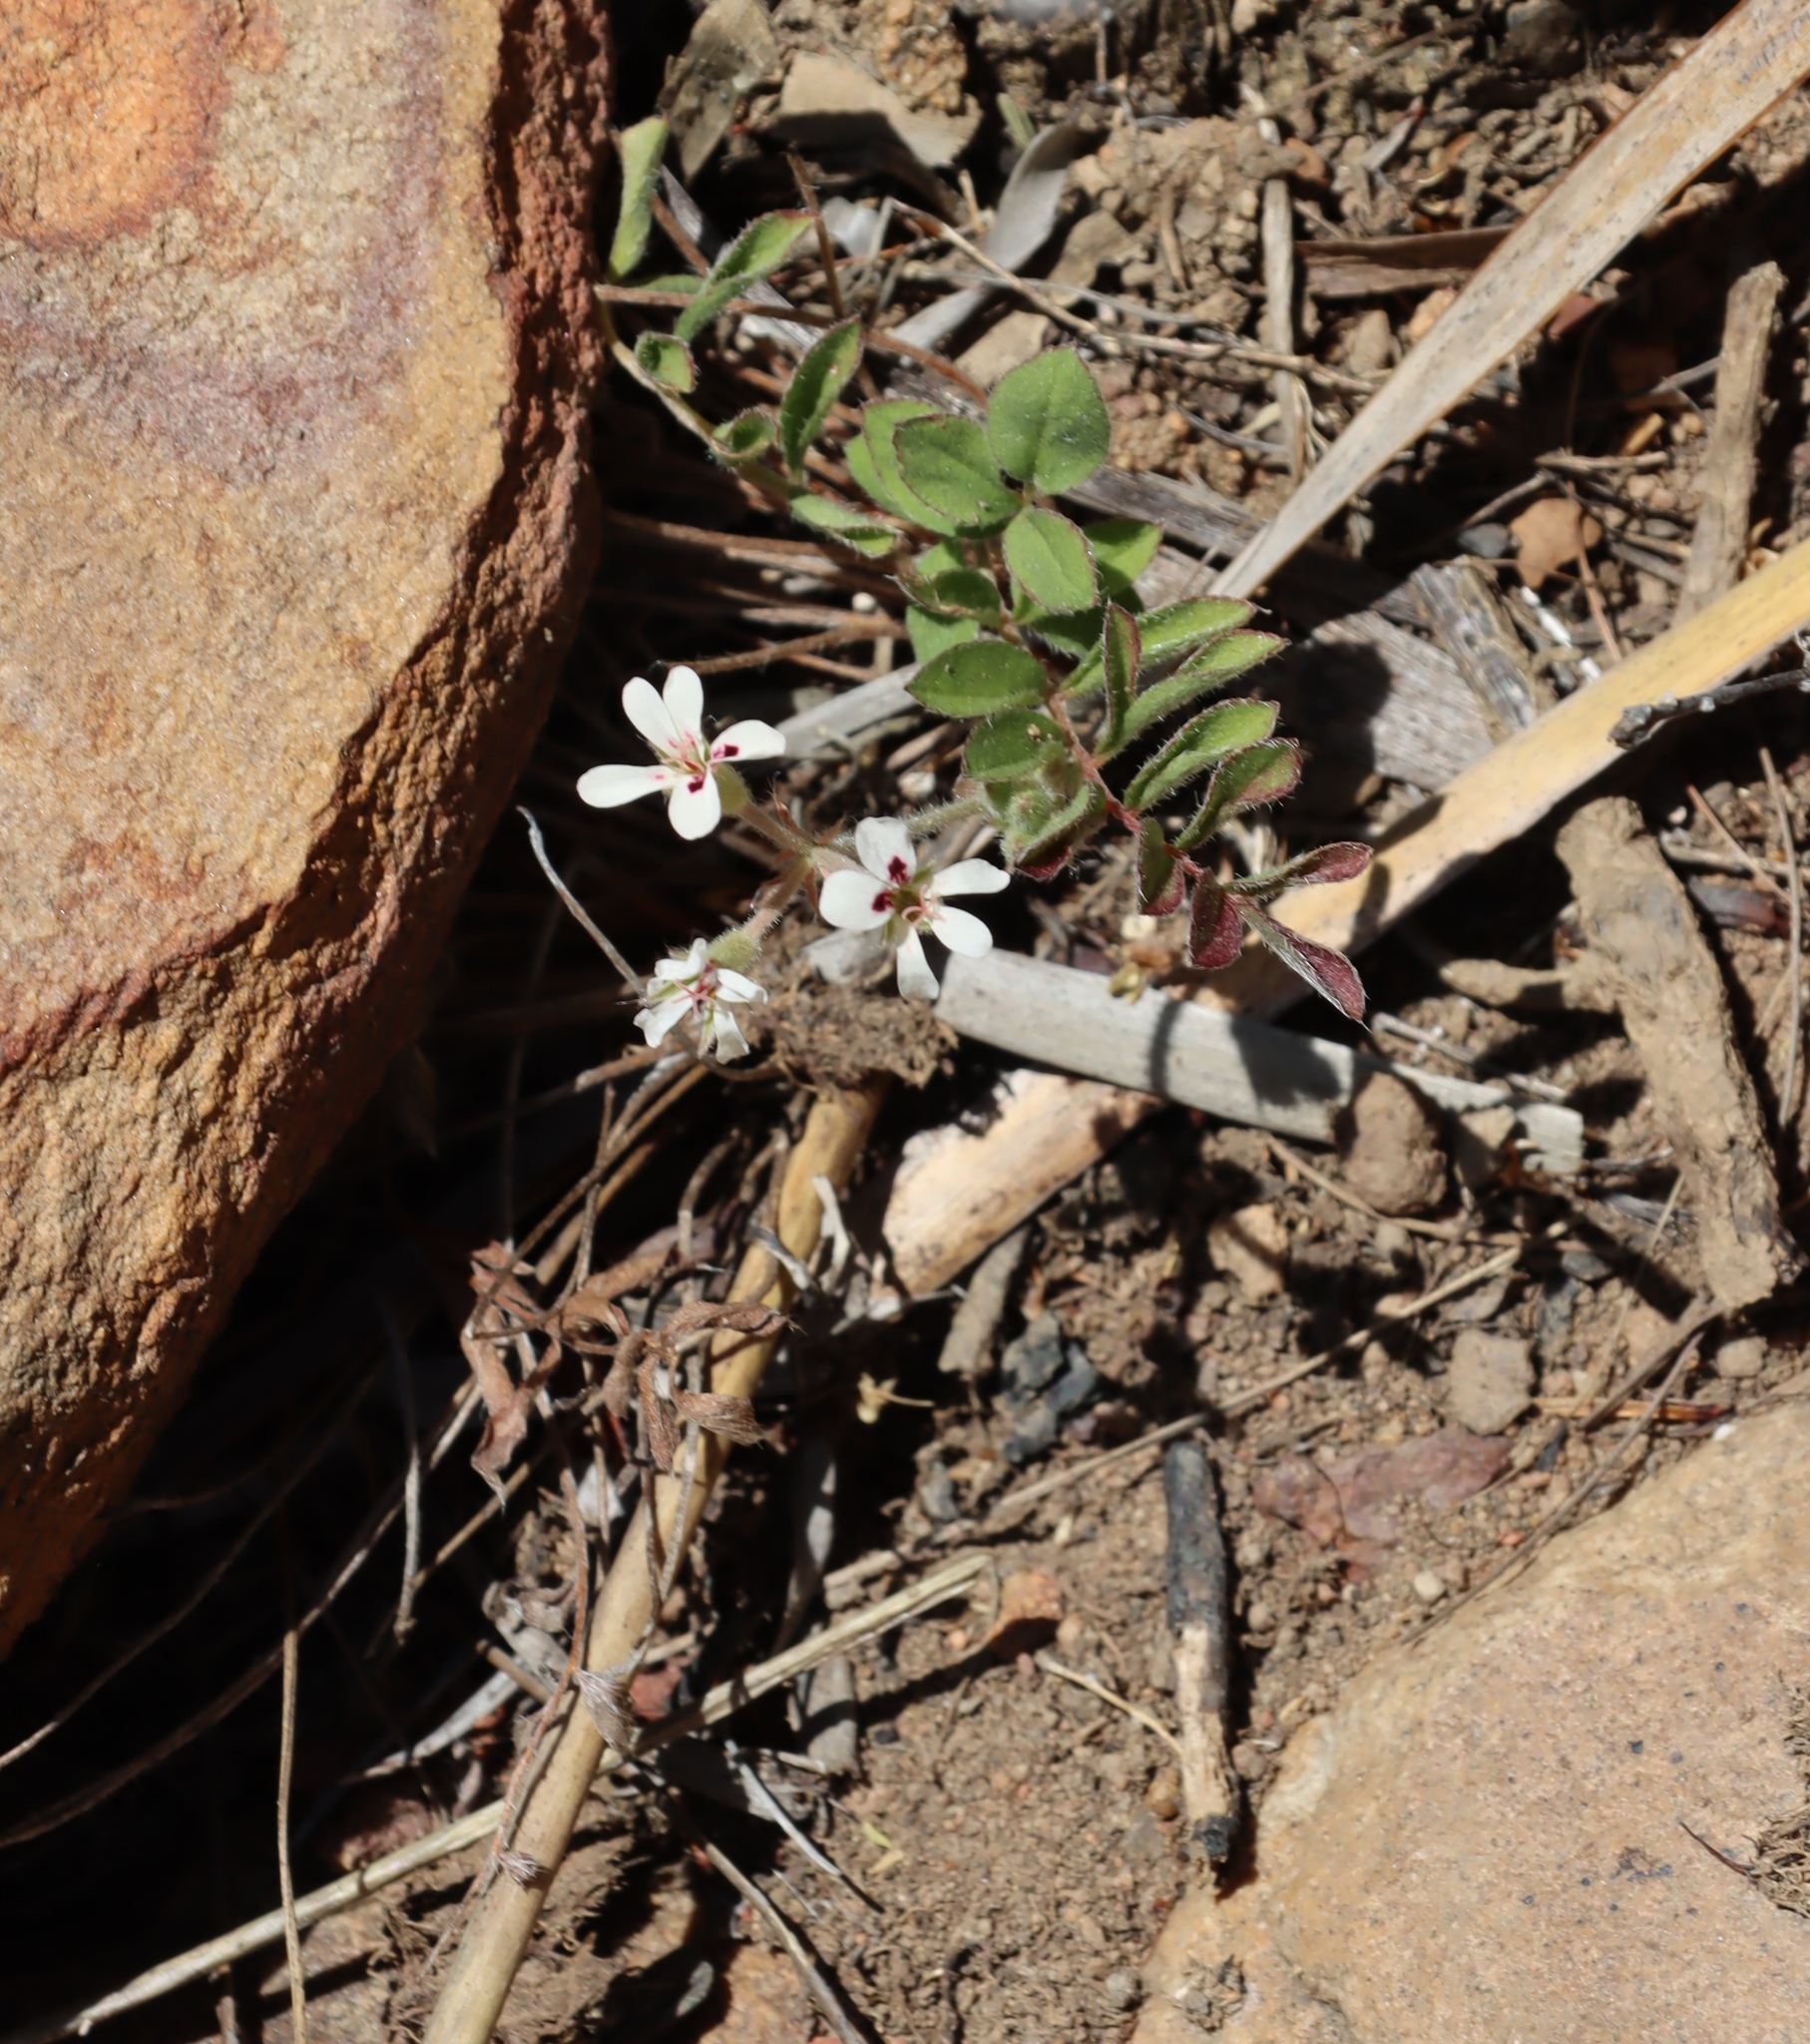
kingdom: Plantae
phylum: Tracheophyta
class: Magnoliopsida
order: Geraniales
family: Geraniaceae
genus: Pelargonium
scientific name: Pelargonium pinnatum
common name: Pinnated pelargonium
